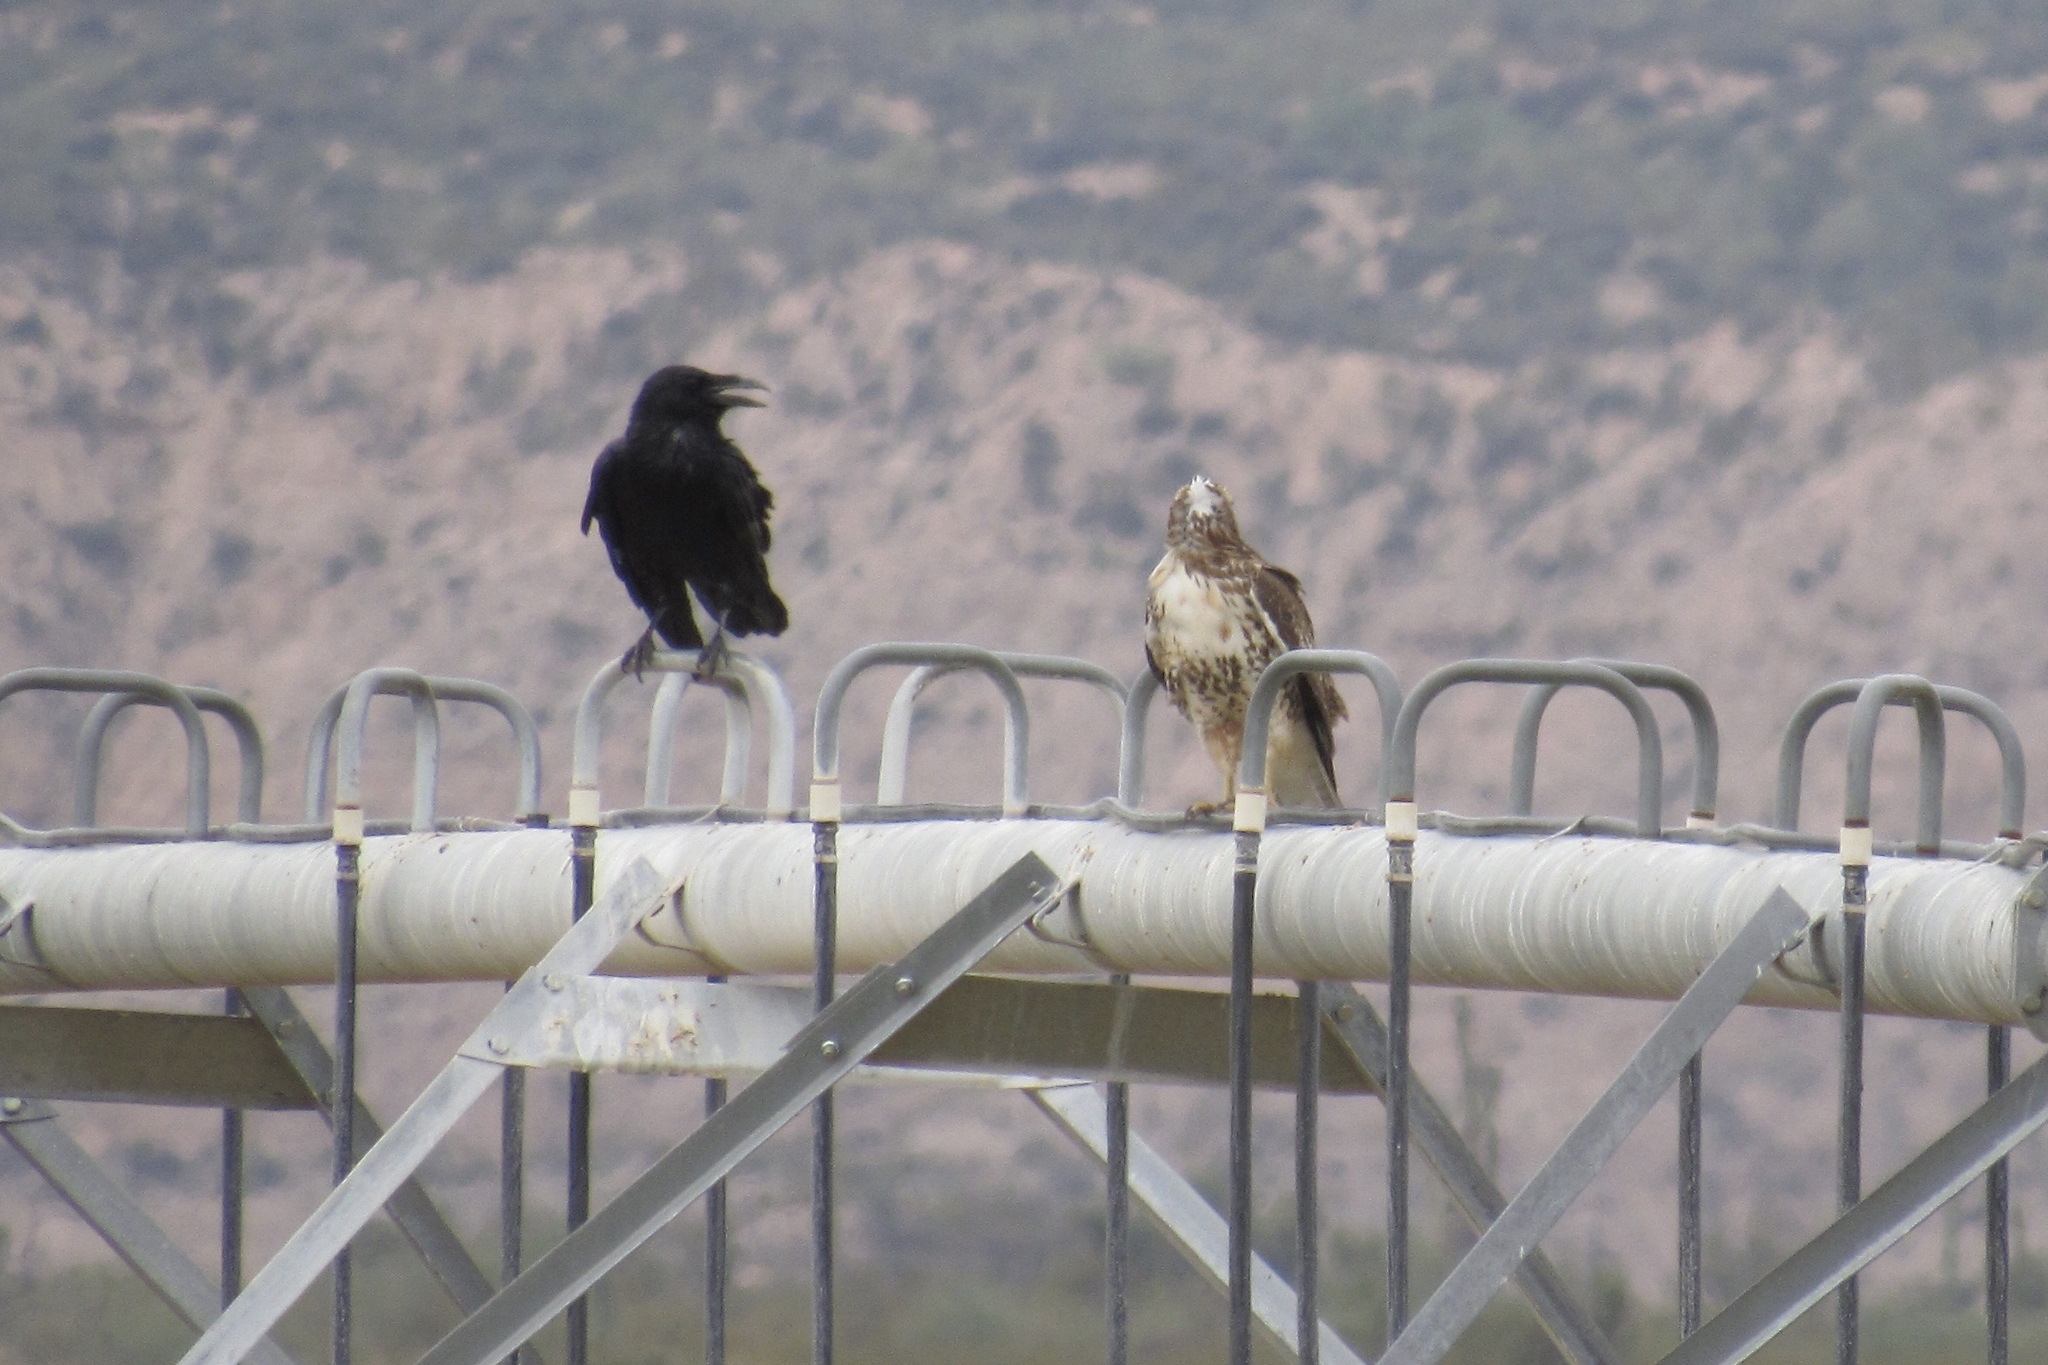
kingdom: Animalia
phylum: Chordata
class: Aves
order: Passeriformes
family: Corvidae
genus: Corvus
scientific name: Corvus corax
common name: Common raven
